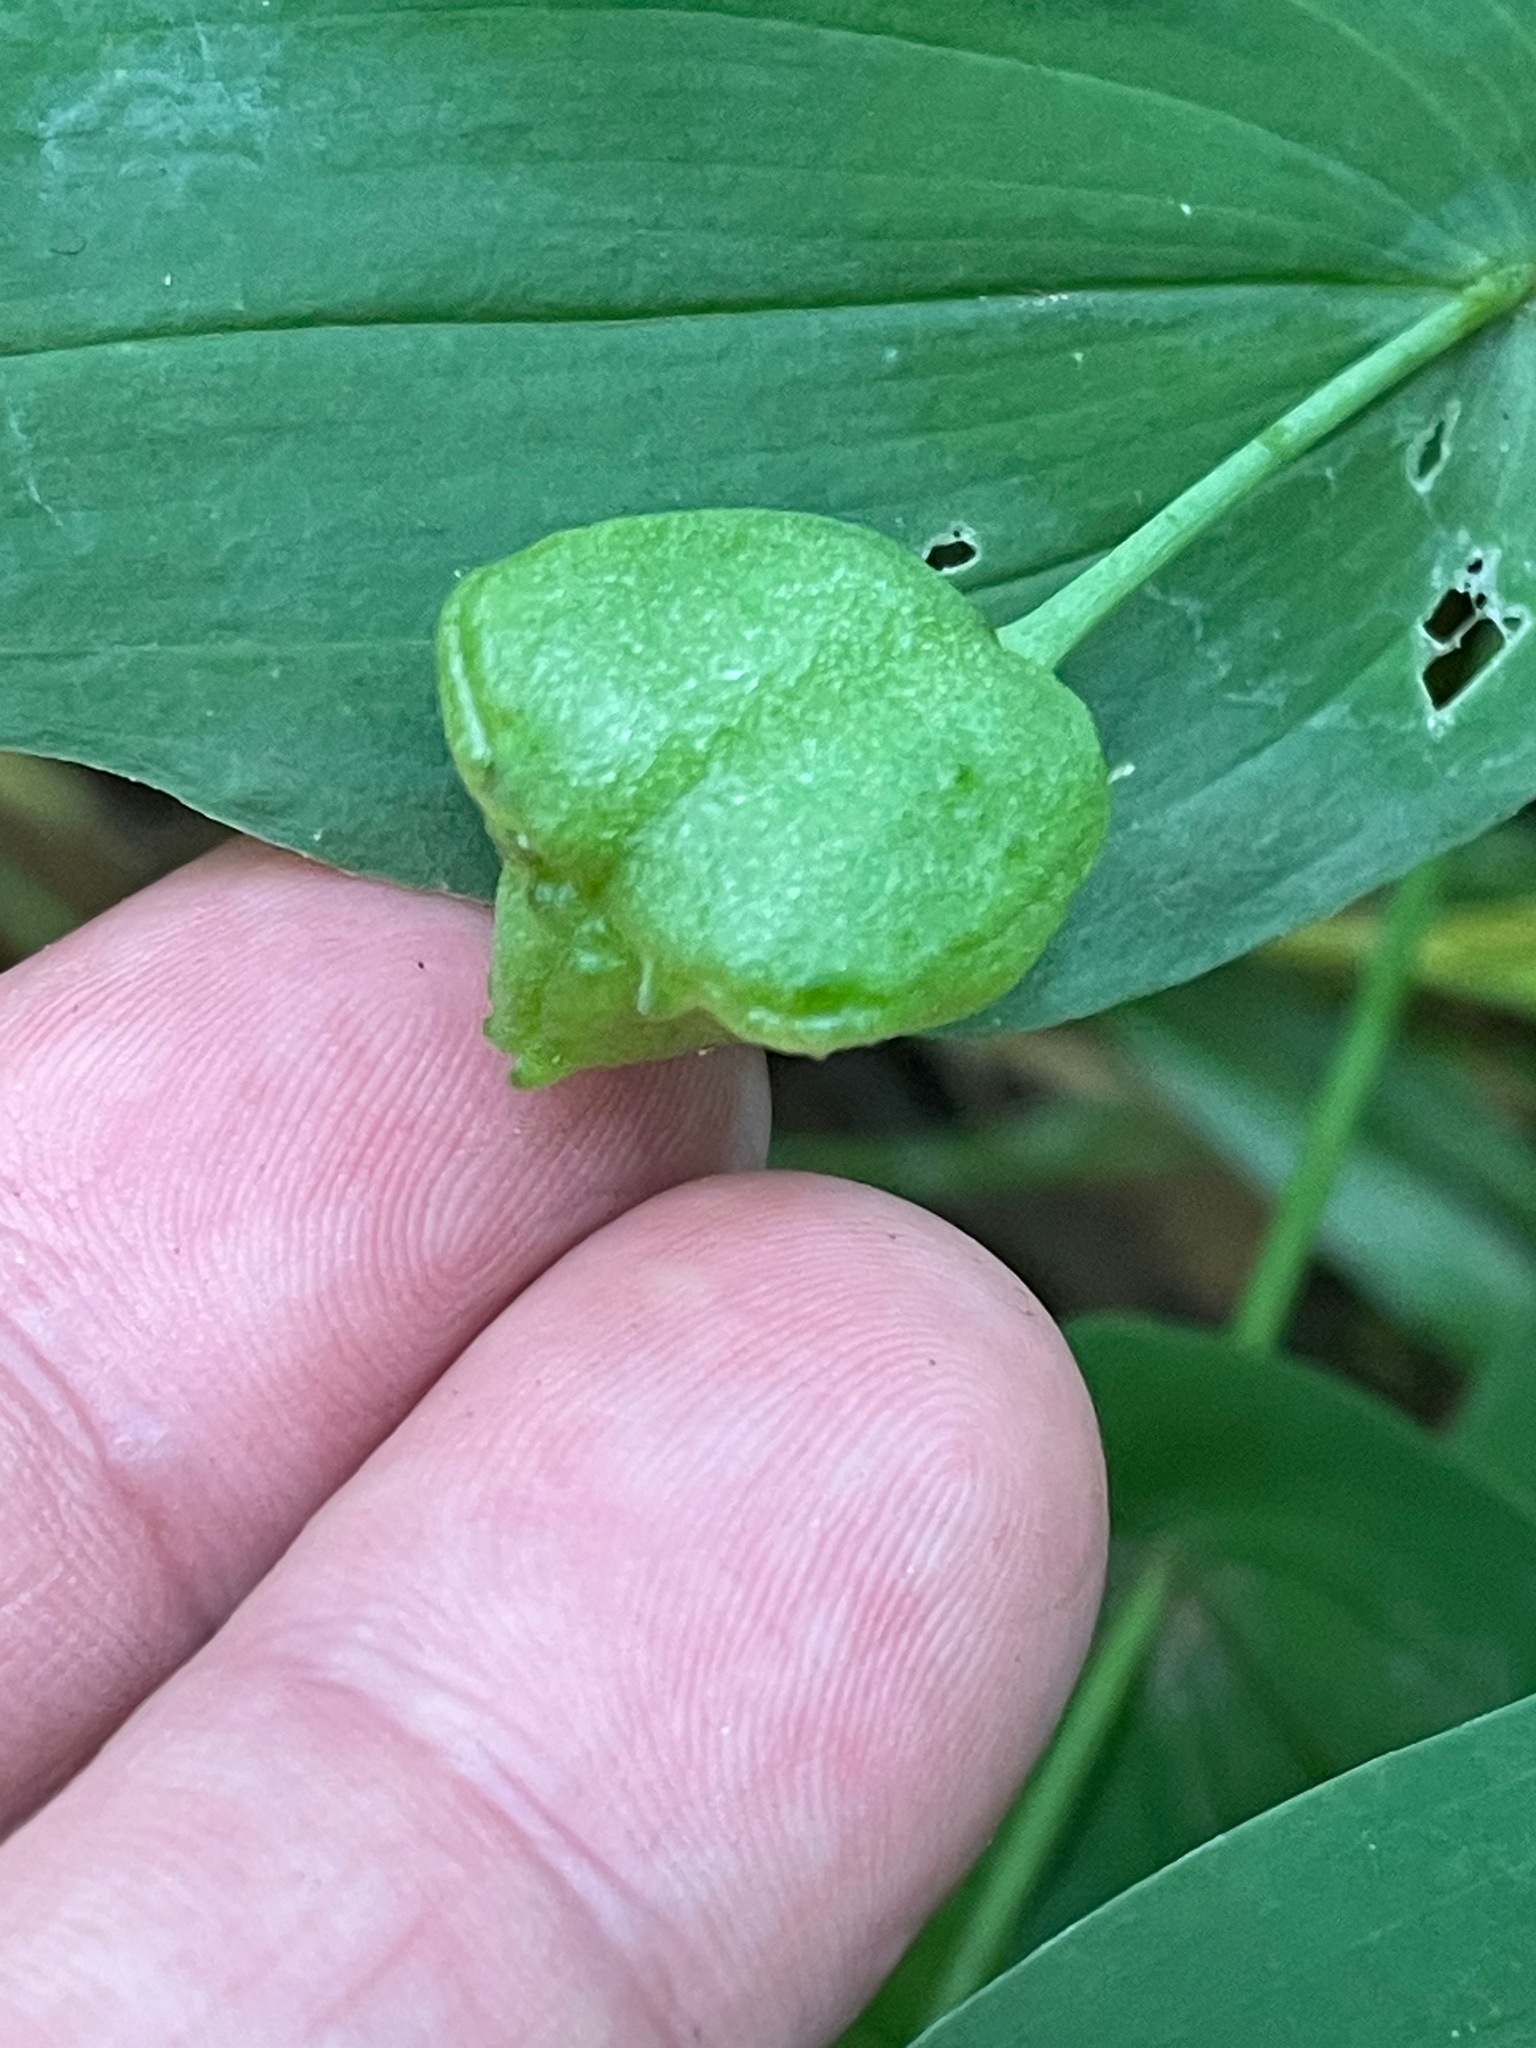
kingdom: Plantae
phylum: Tracheophyta
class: Liliopsida
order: Liliales
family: Colchicaceae
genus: Uvularia
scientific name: Uvularia grandiflora
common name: Bellwort
